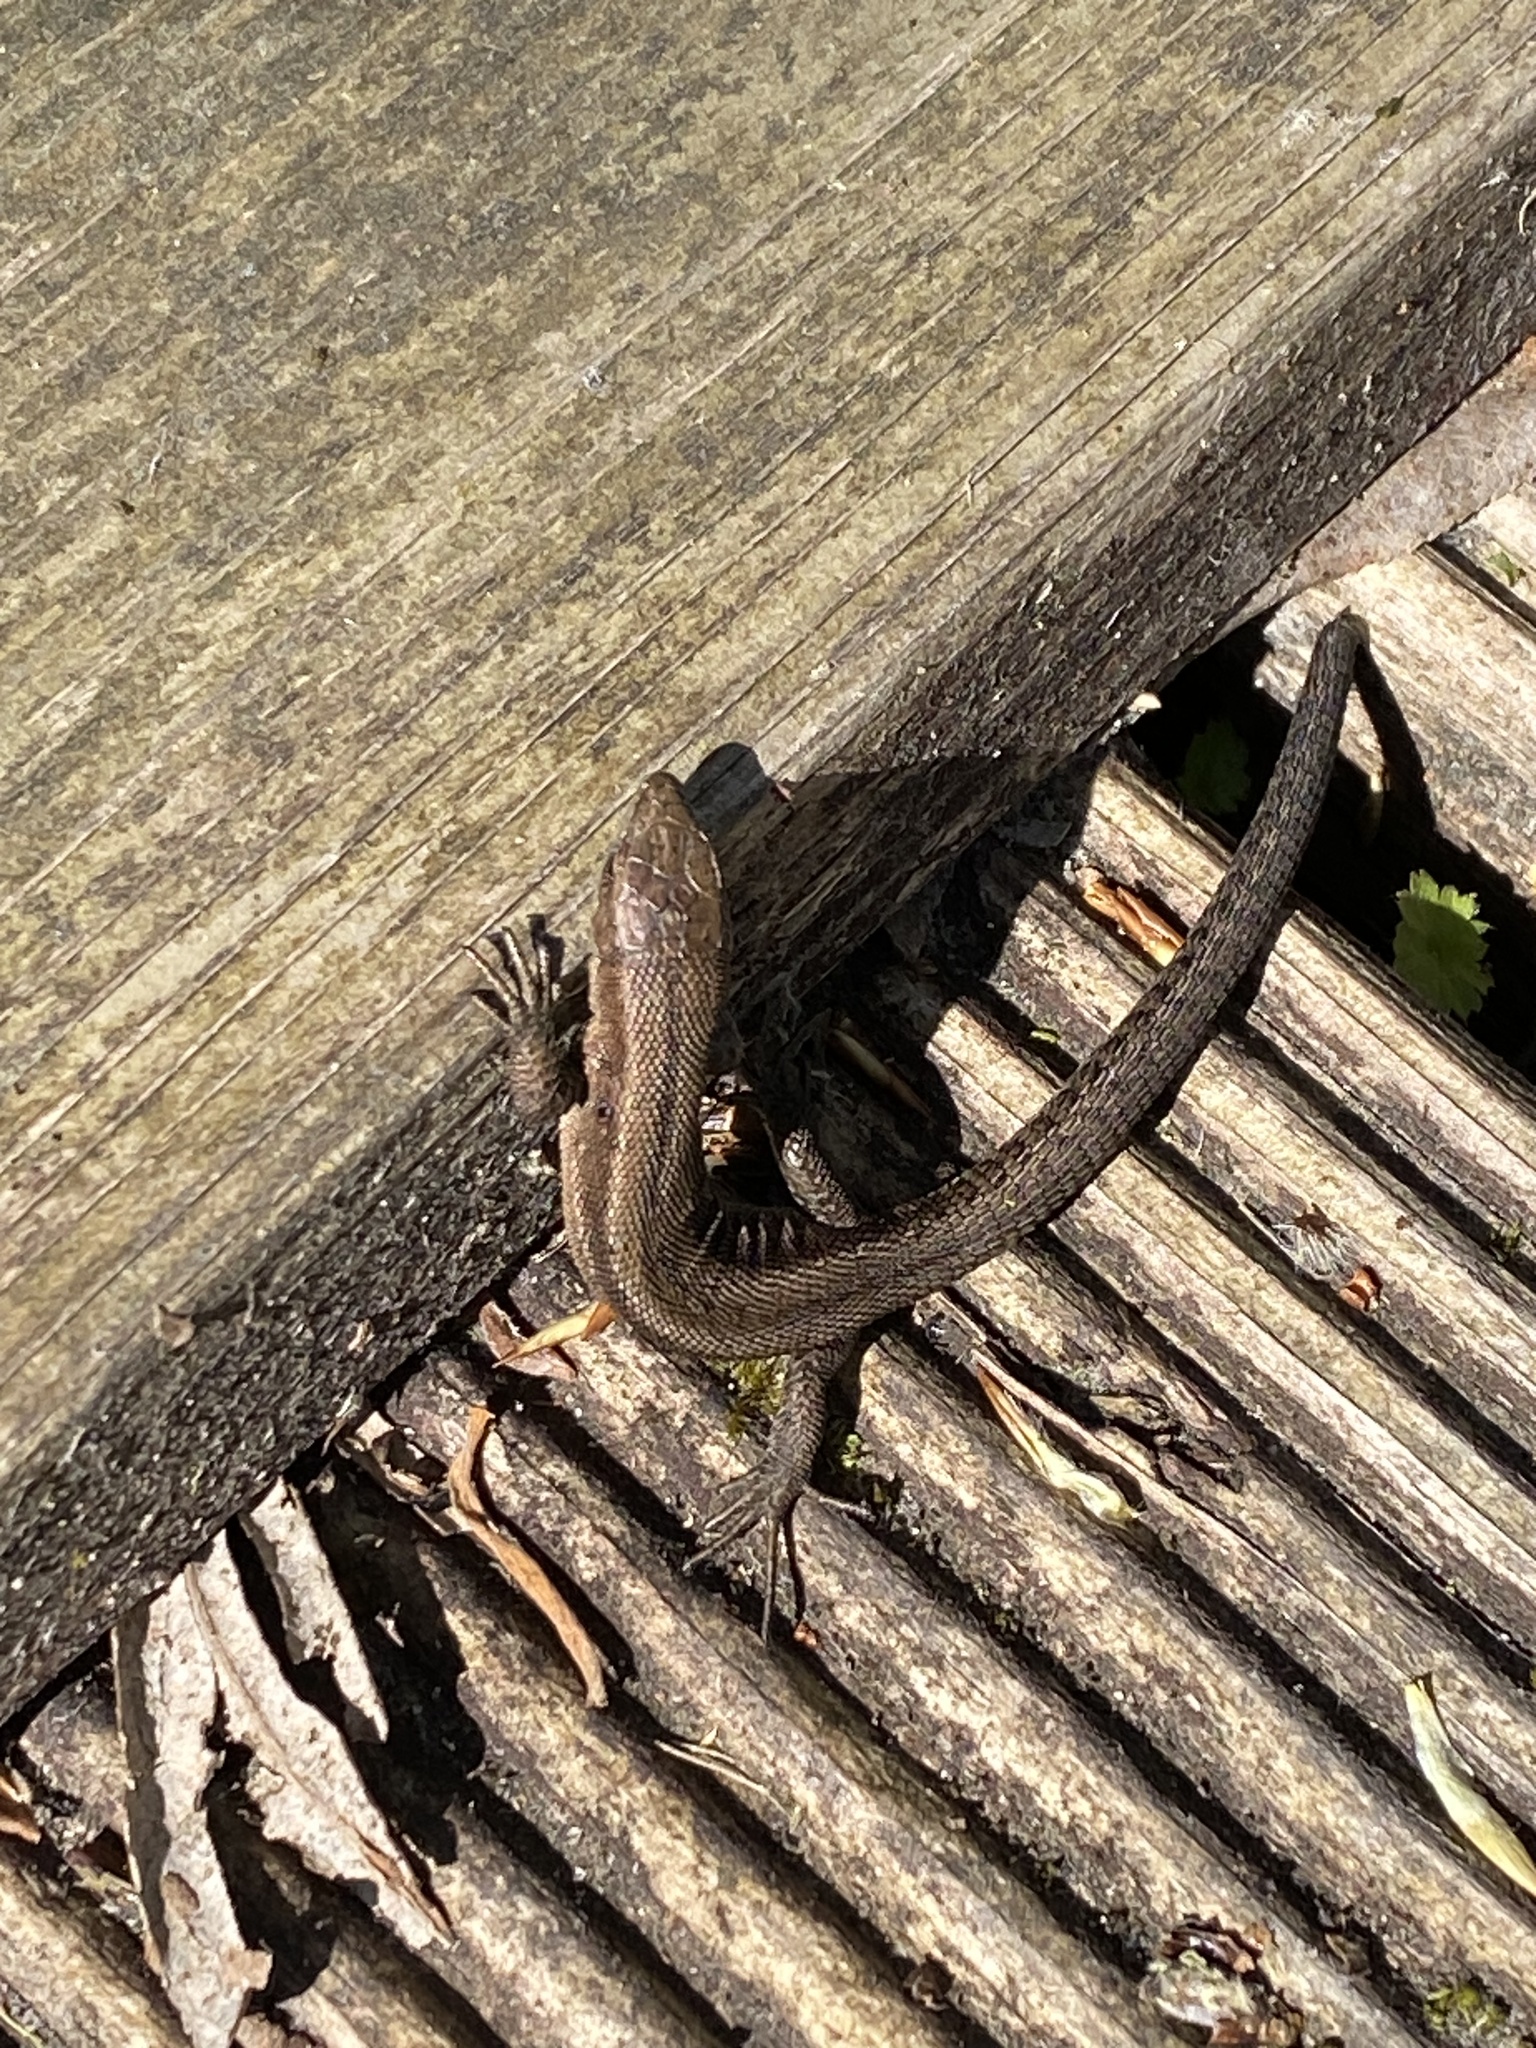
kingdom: Animalia
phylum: Chordata
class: Squamata
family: Lacertidae
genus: Zootoca
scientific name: Zootoca vivipara
